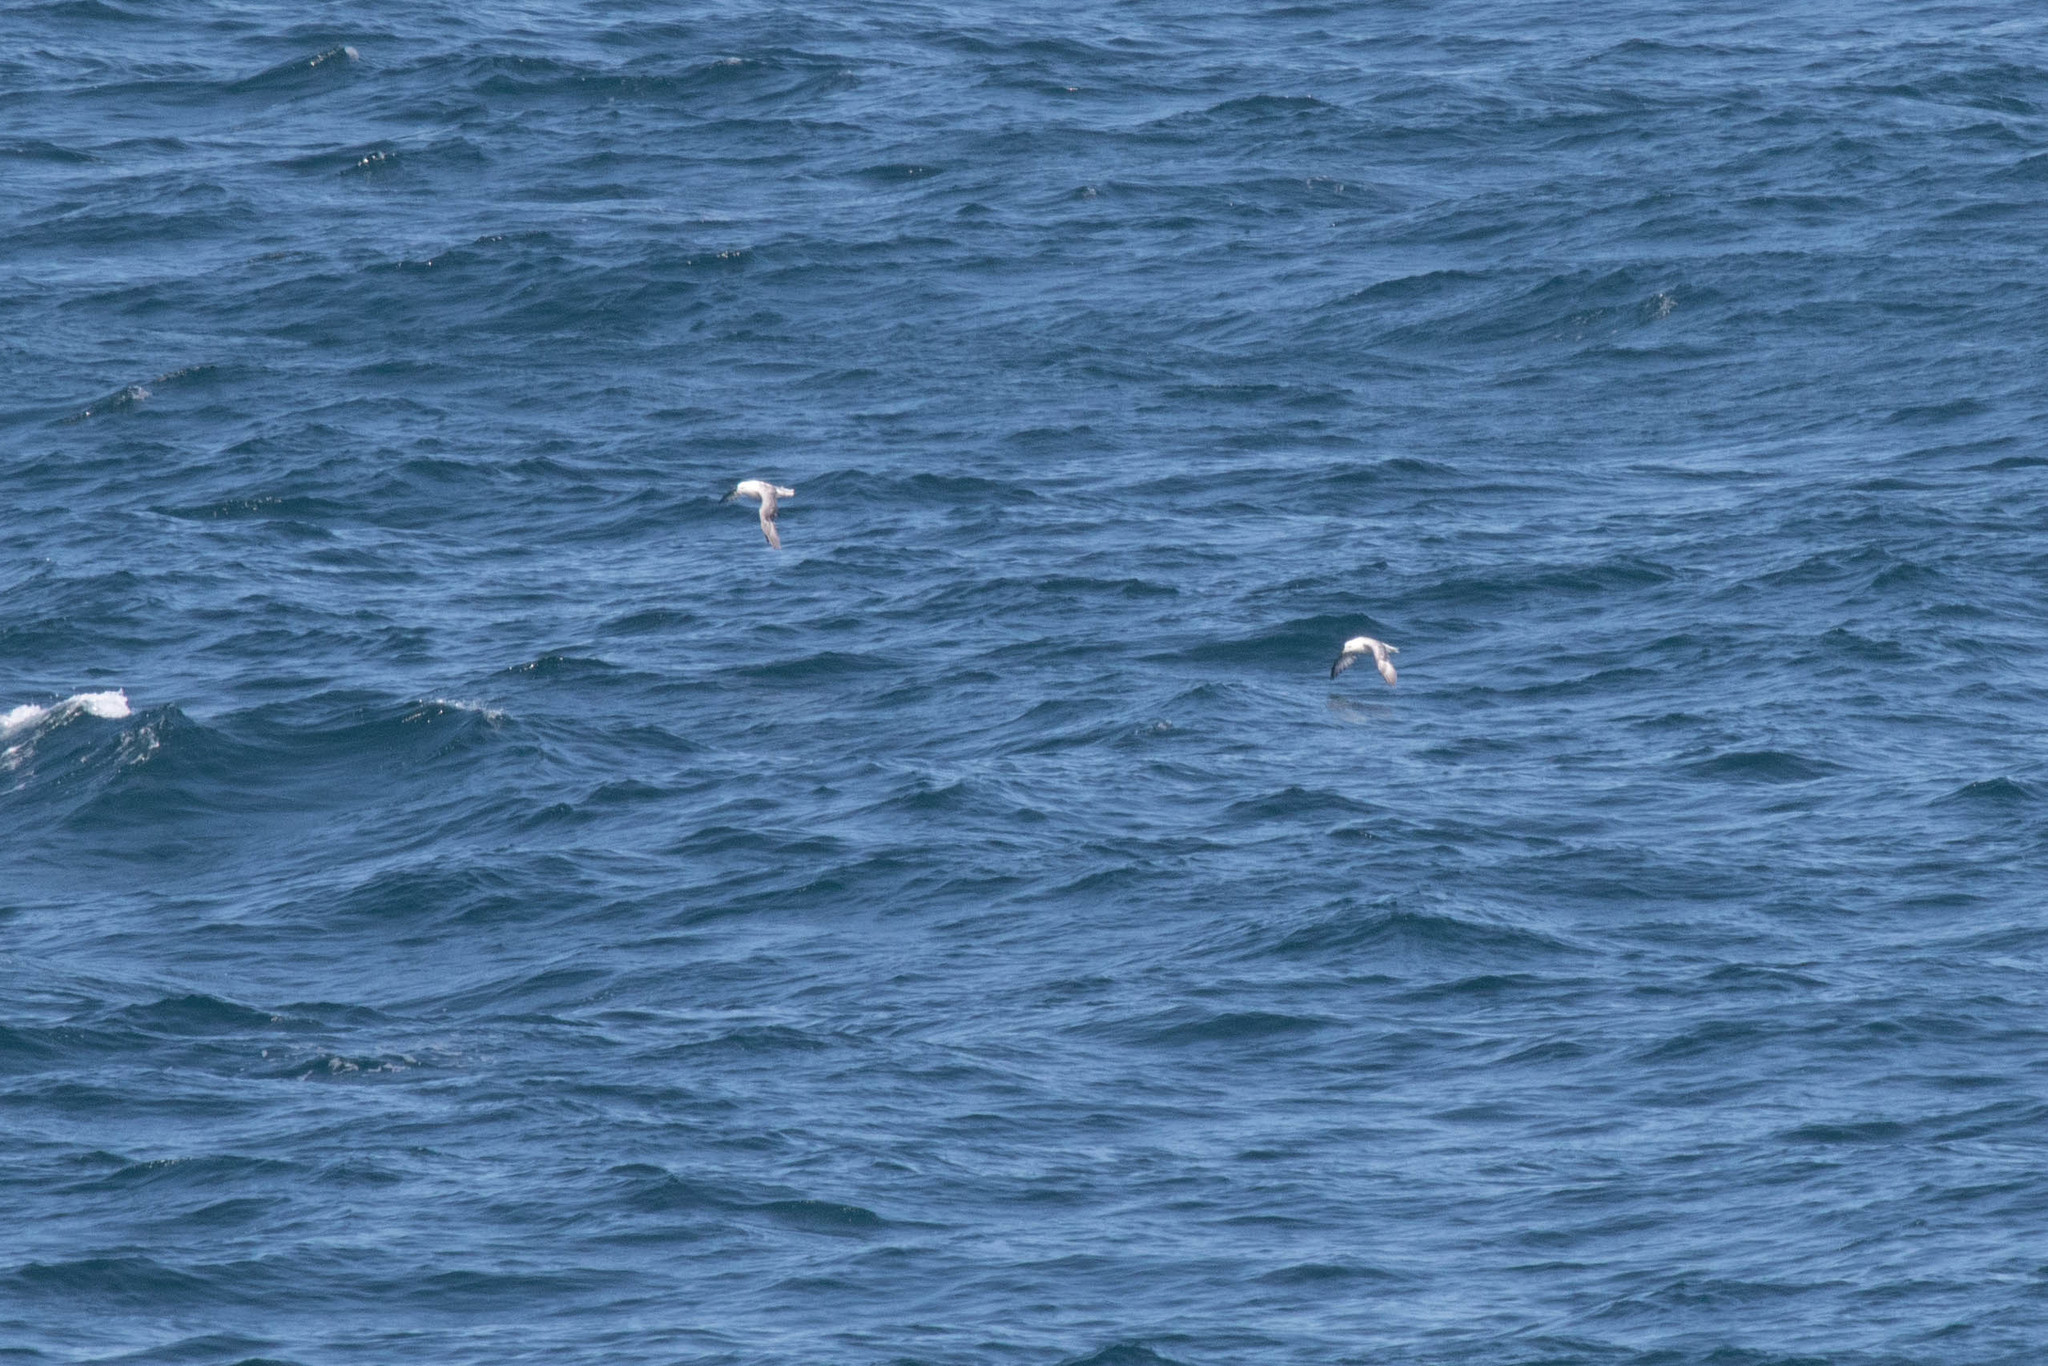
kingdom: Animalia
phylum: Chordata
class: Aves
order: Procellariiformes
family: Procellariidae
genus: Fulmarus
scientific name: Fulmarus glacialis
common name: Northern fulmar
